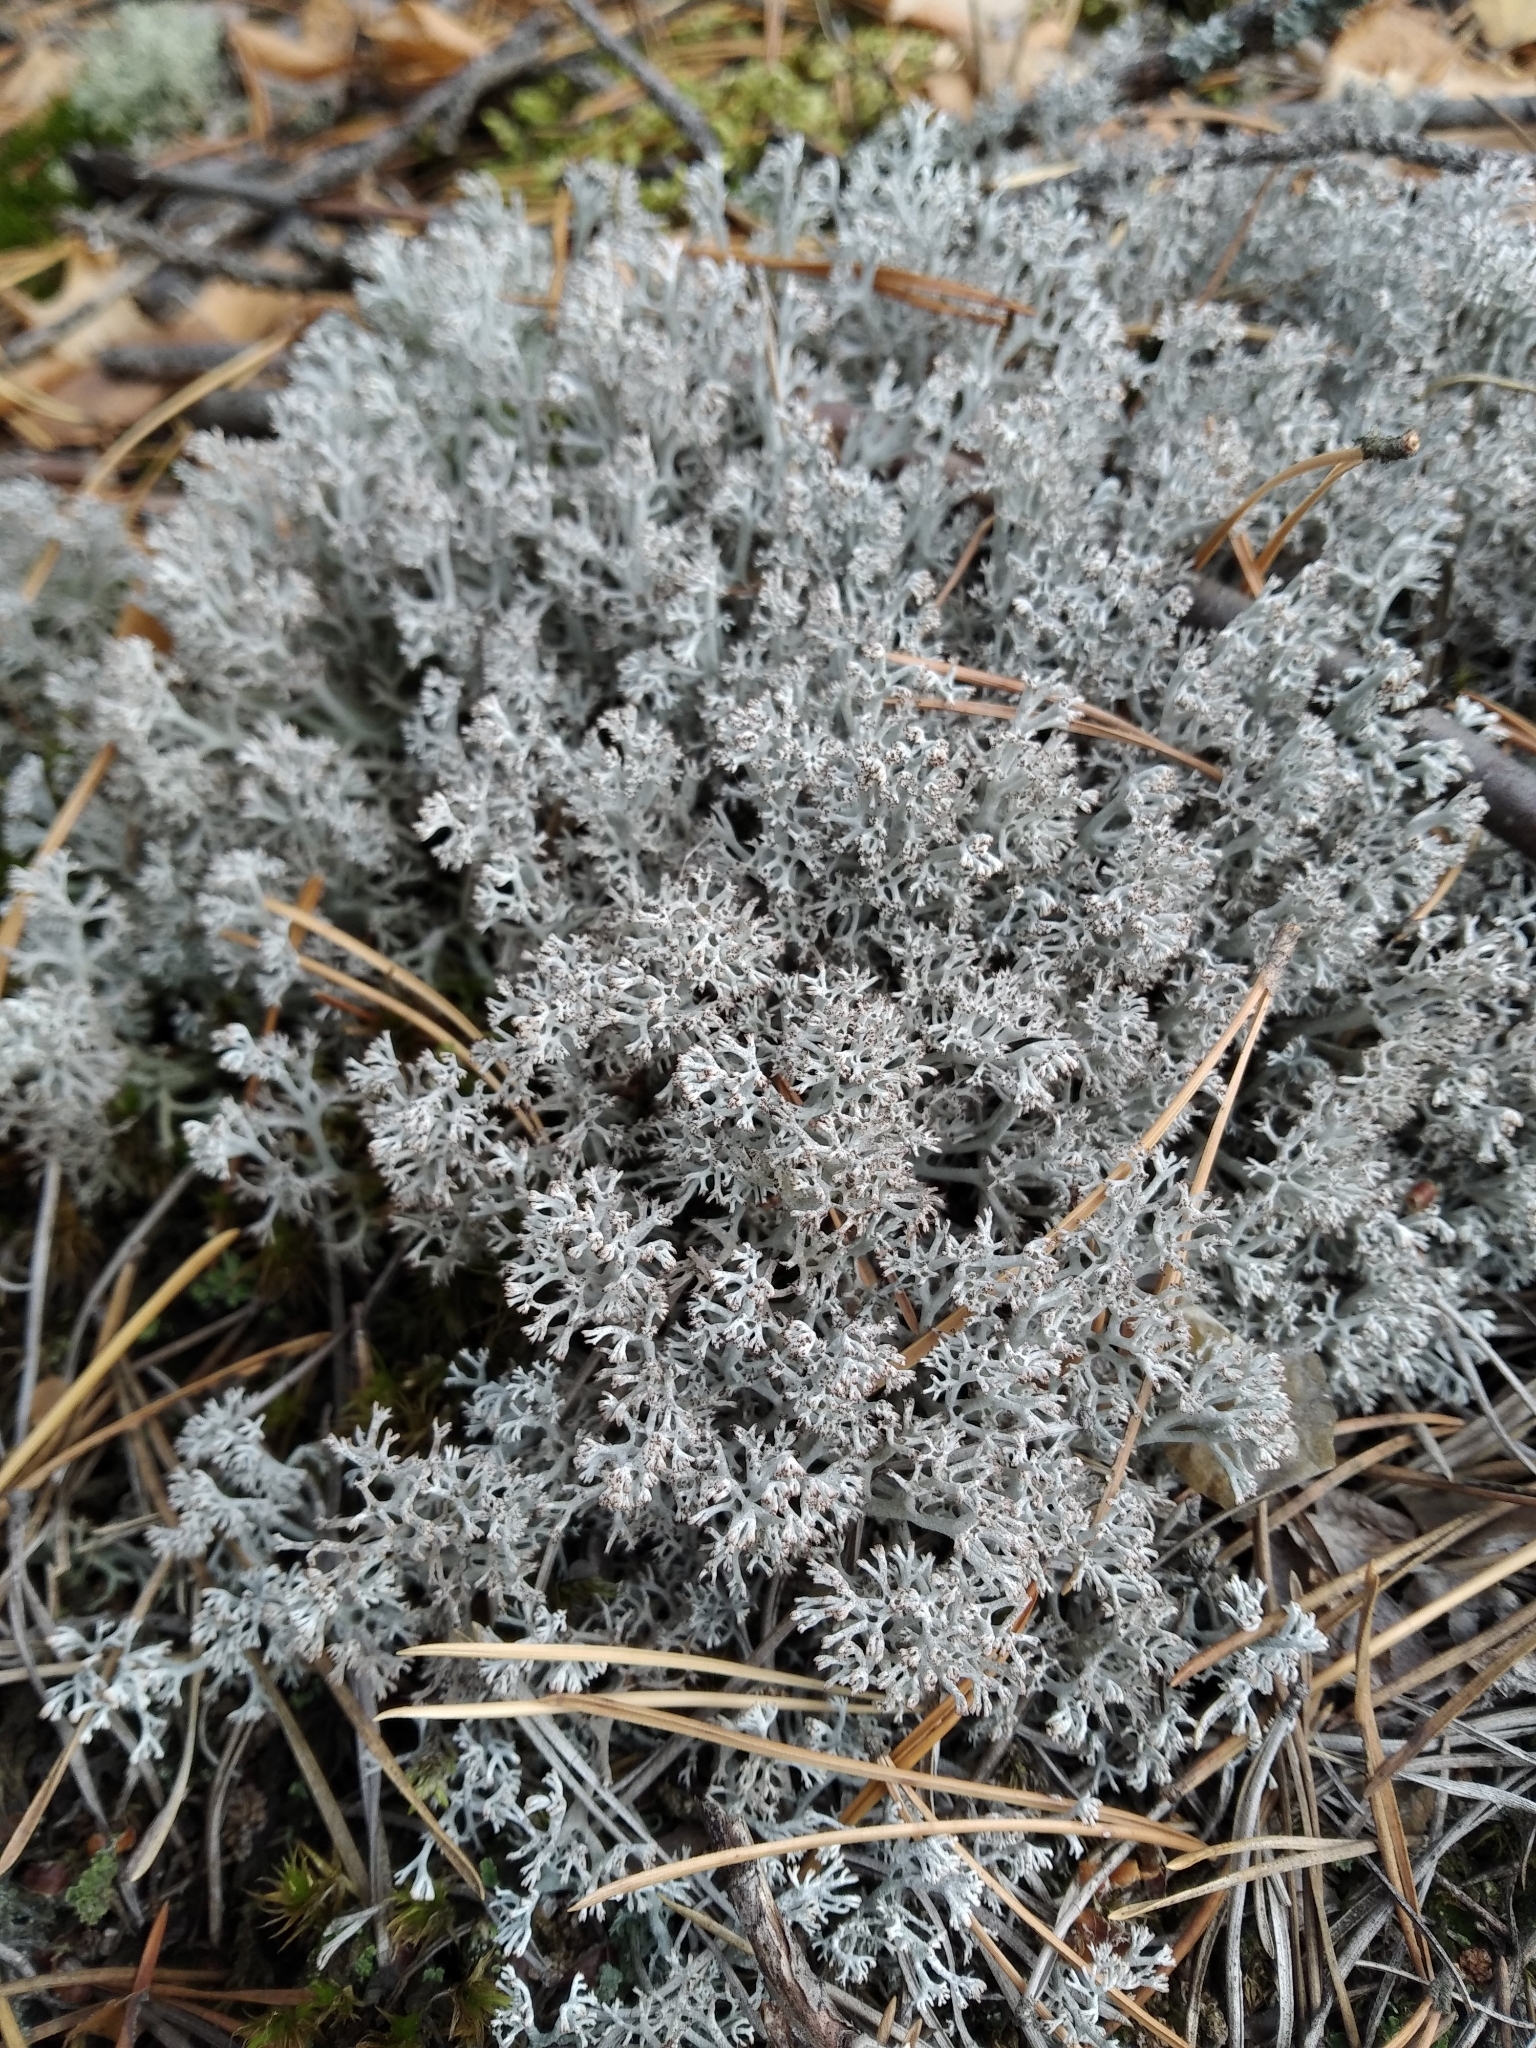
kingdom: Fungi
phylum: Ascomycota
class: Lecanoromycetes
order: Lecanorales
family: Cladoniaceae
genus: Cladonia
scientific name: Cladonia rangiferina
